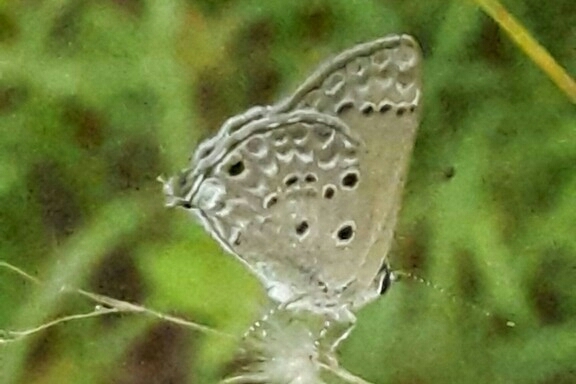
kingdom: Animalia
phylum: Arthropoda
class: Insecta
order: Lepidoptera
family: Lycaenidae
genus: Strymon
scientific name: Strymon bubastus
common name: Bubastes hairstreak
